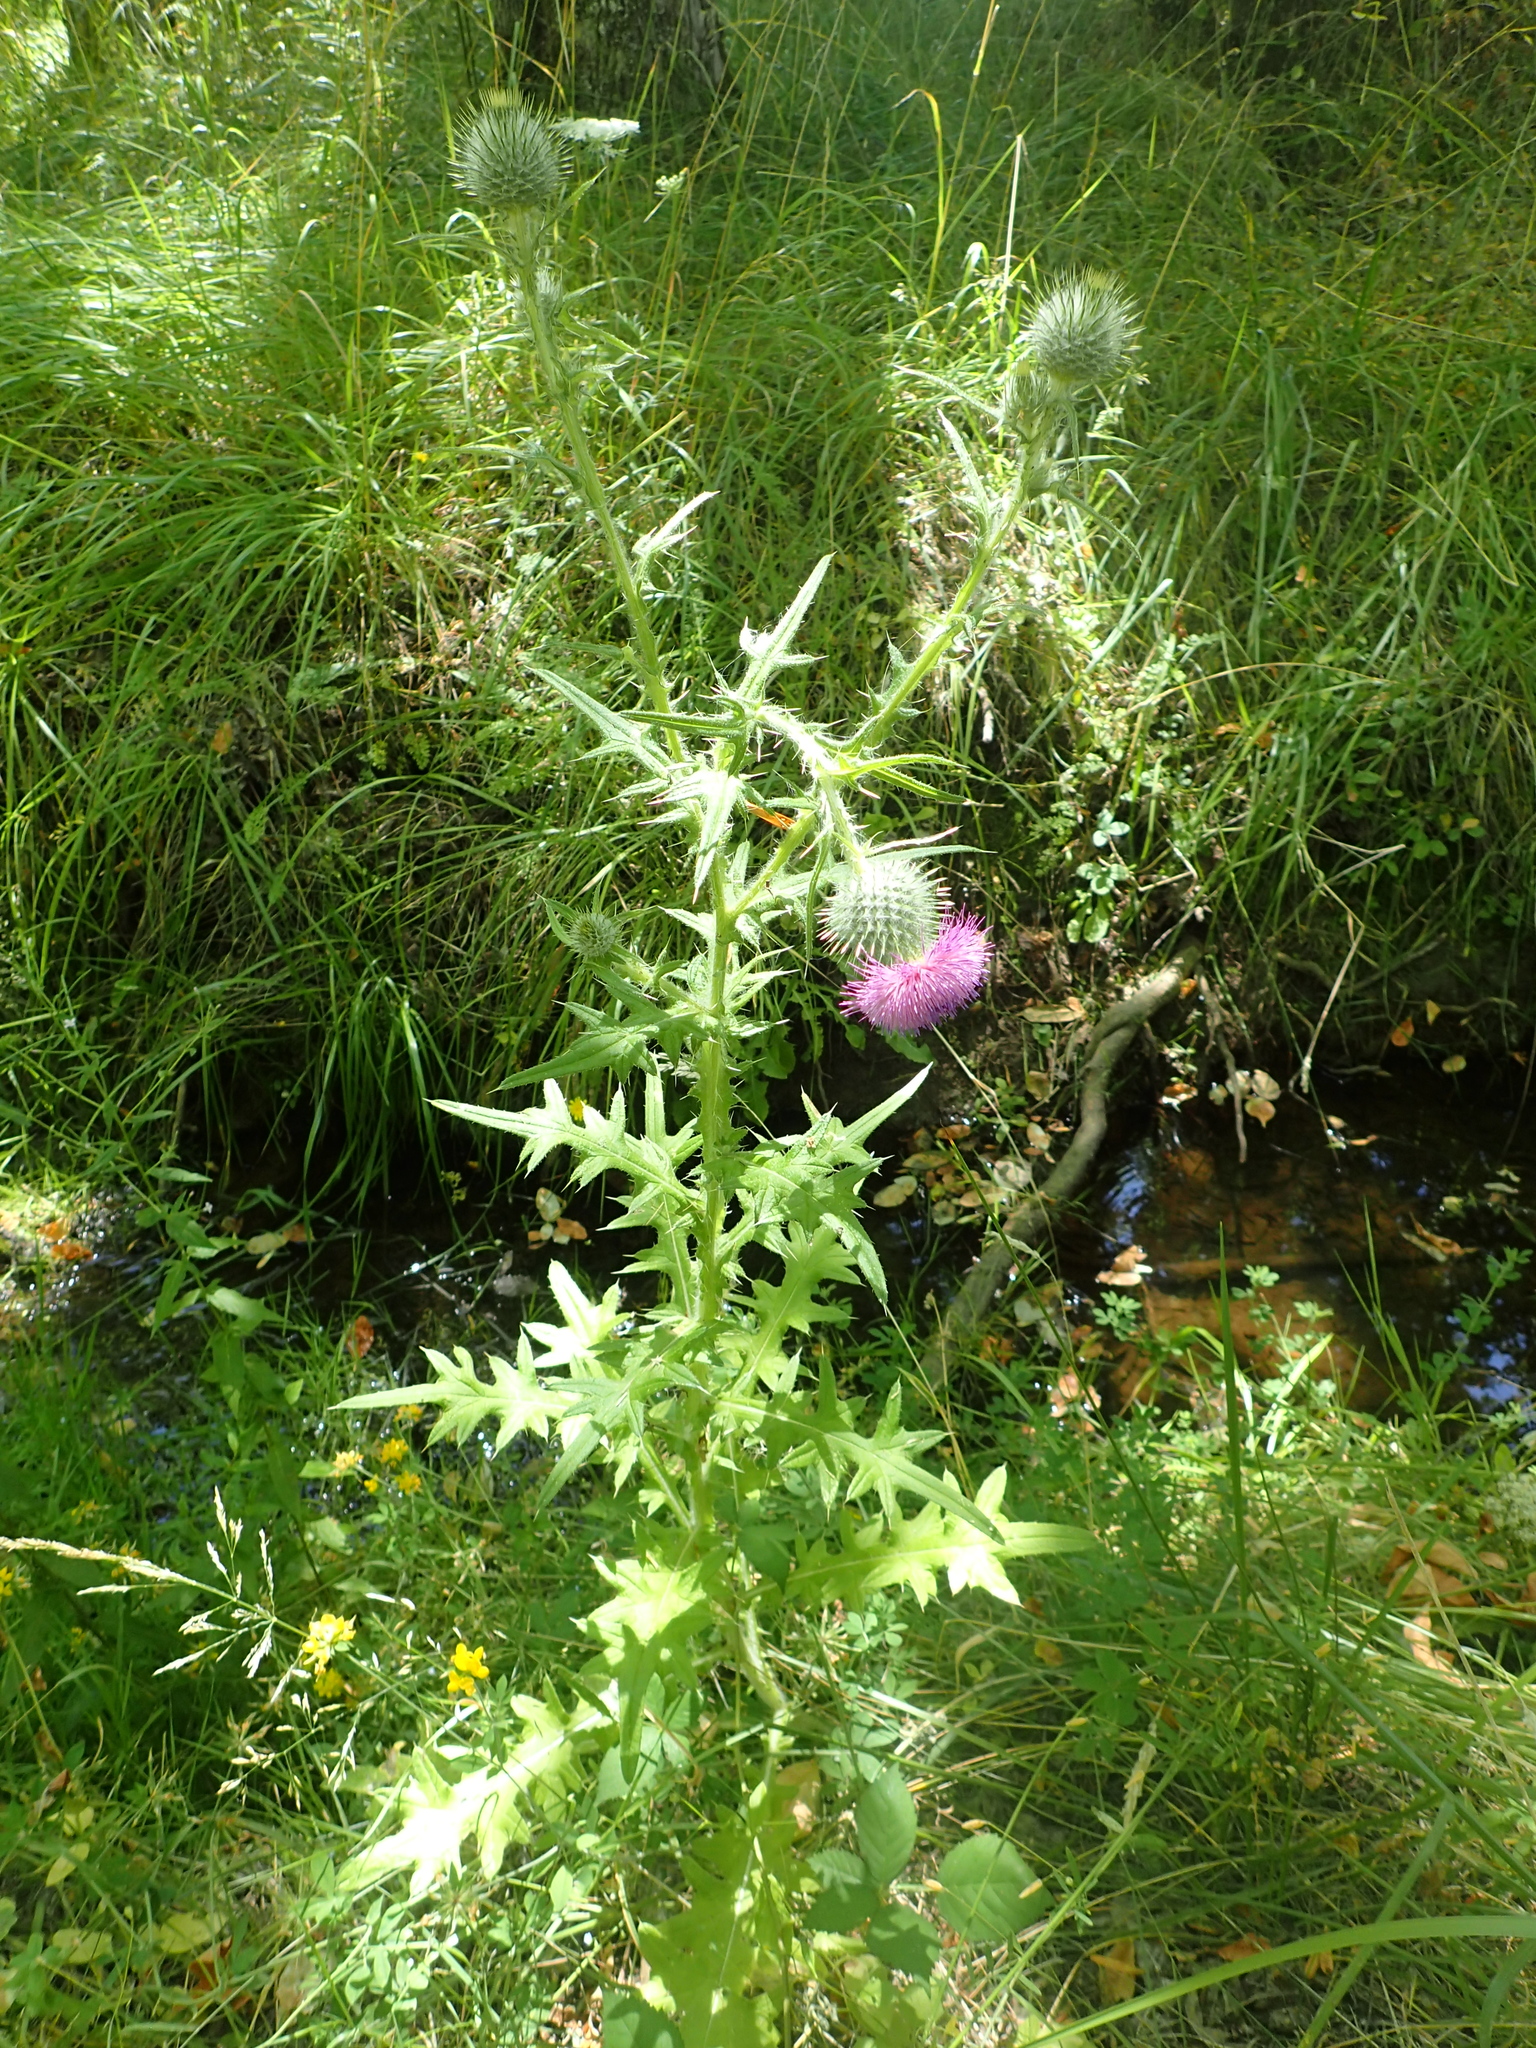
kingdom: Plantae
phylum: Tracheophyta
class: Magnoliopsida
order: Asterales
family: Asteraceae
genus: Cirsium
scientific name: Cirsium vulgare
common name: Bull thistle
